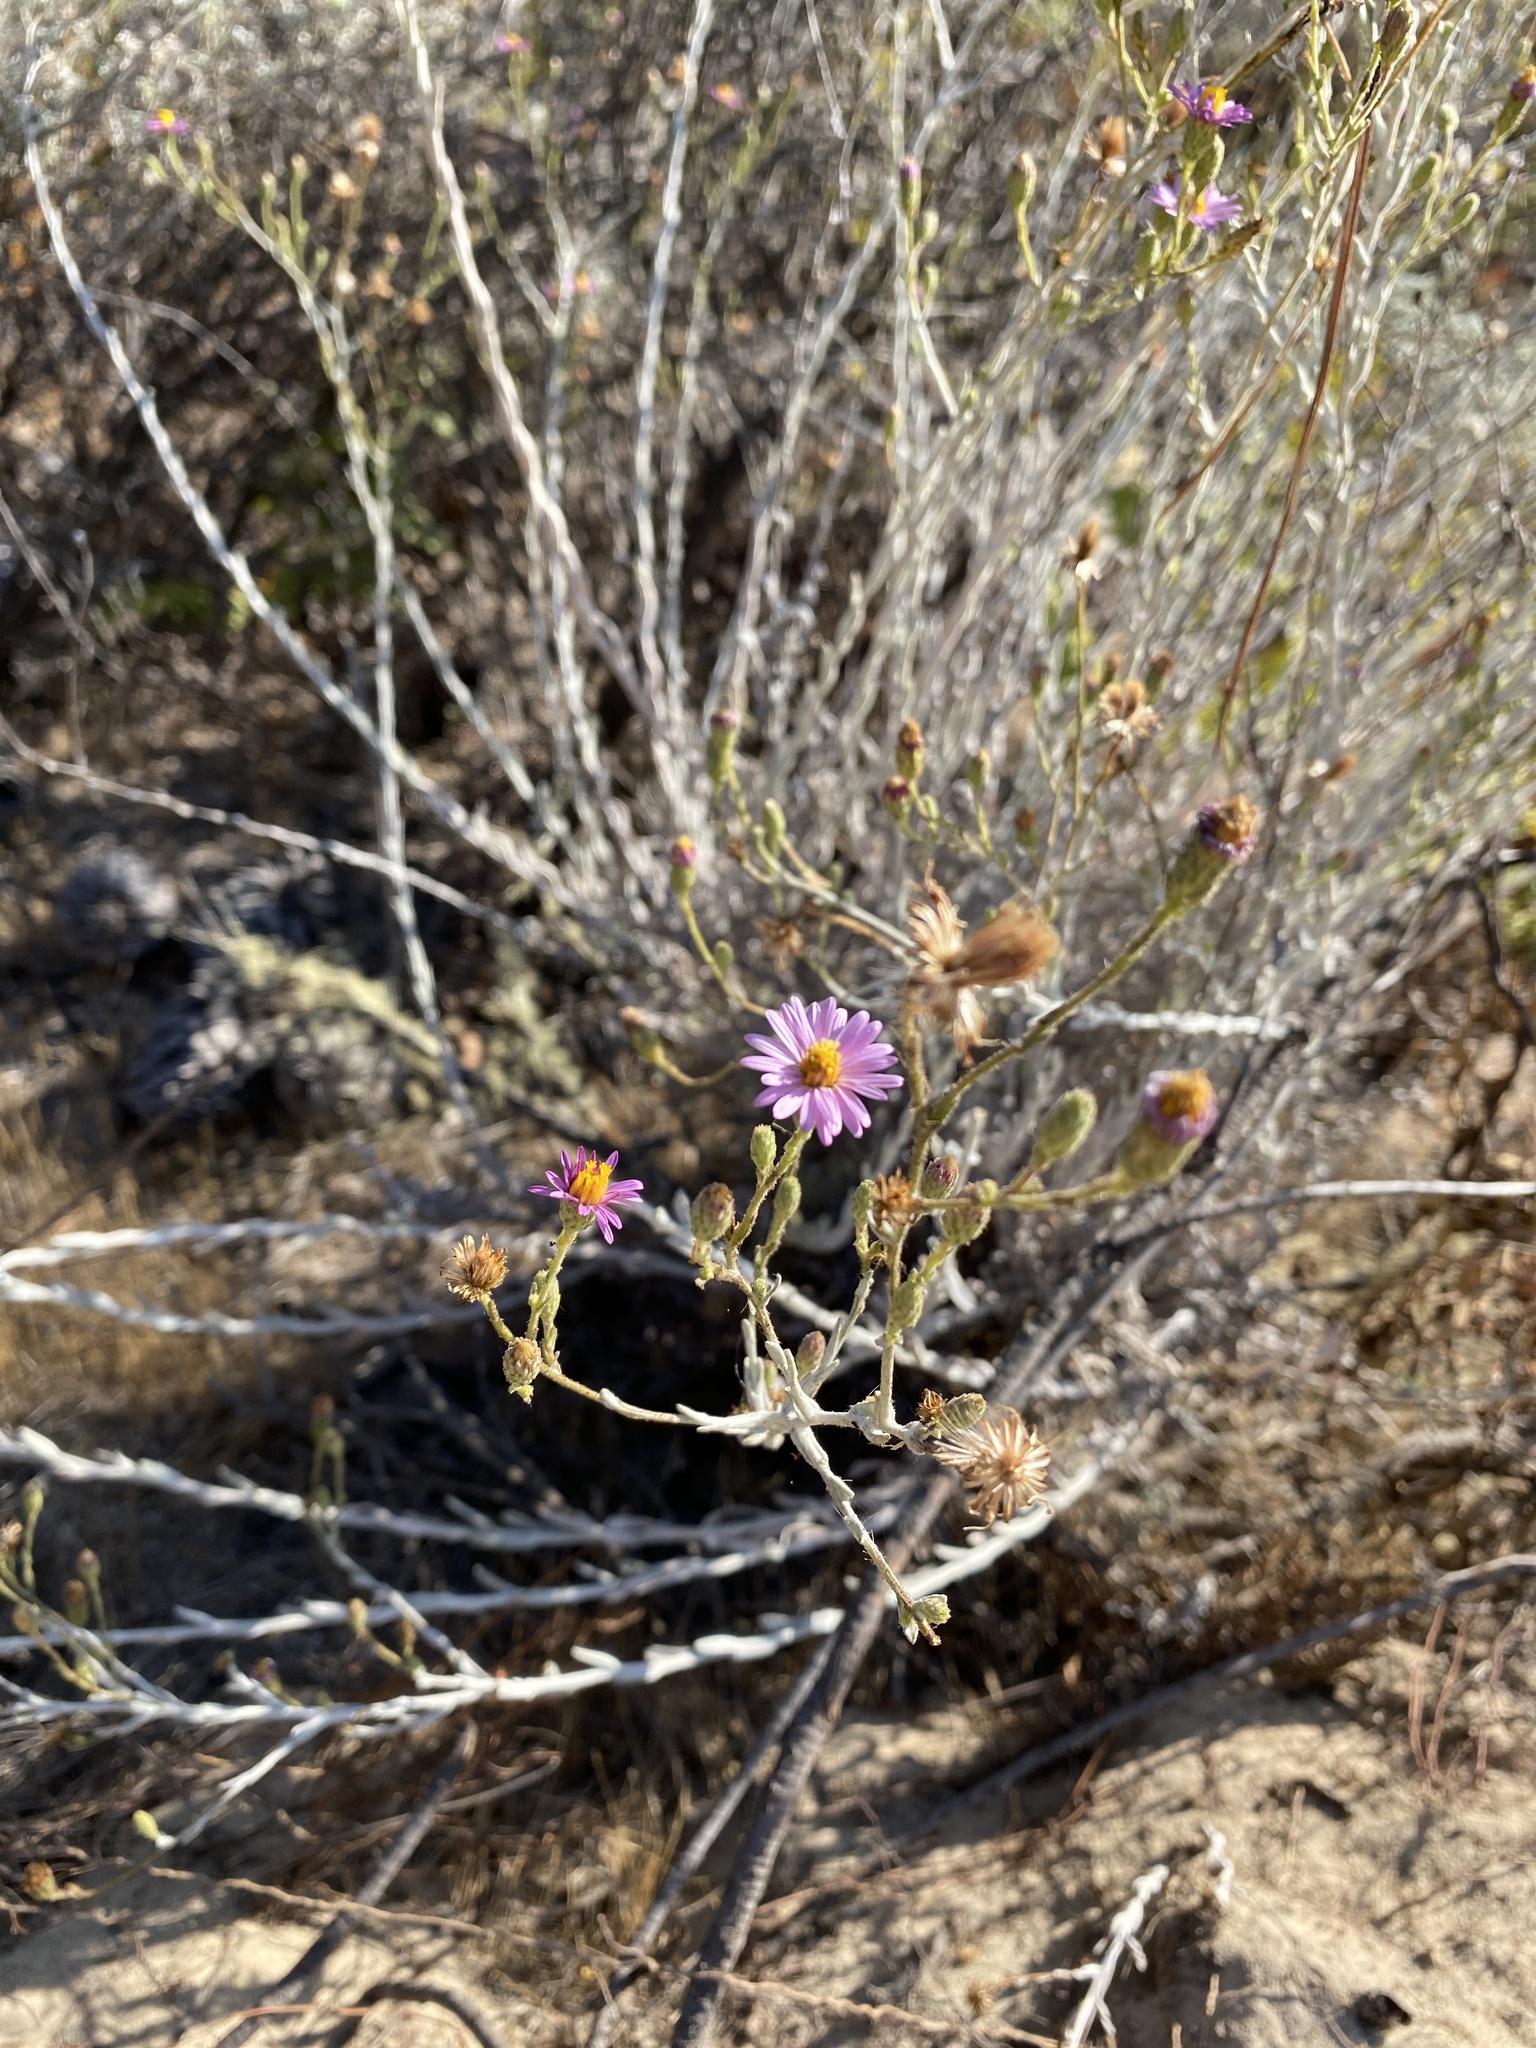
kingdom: Plantae
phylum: Tracheophyta
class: Magnoliopsida
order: Asterales
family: Asteraceae
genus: Corethrogyne
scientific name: Corethrogyne filaginifolia
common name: Sand-aster
